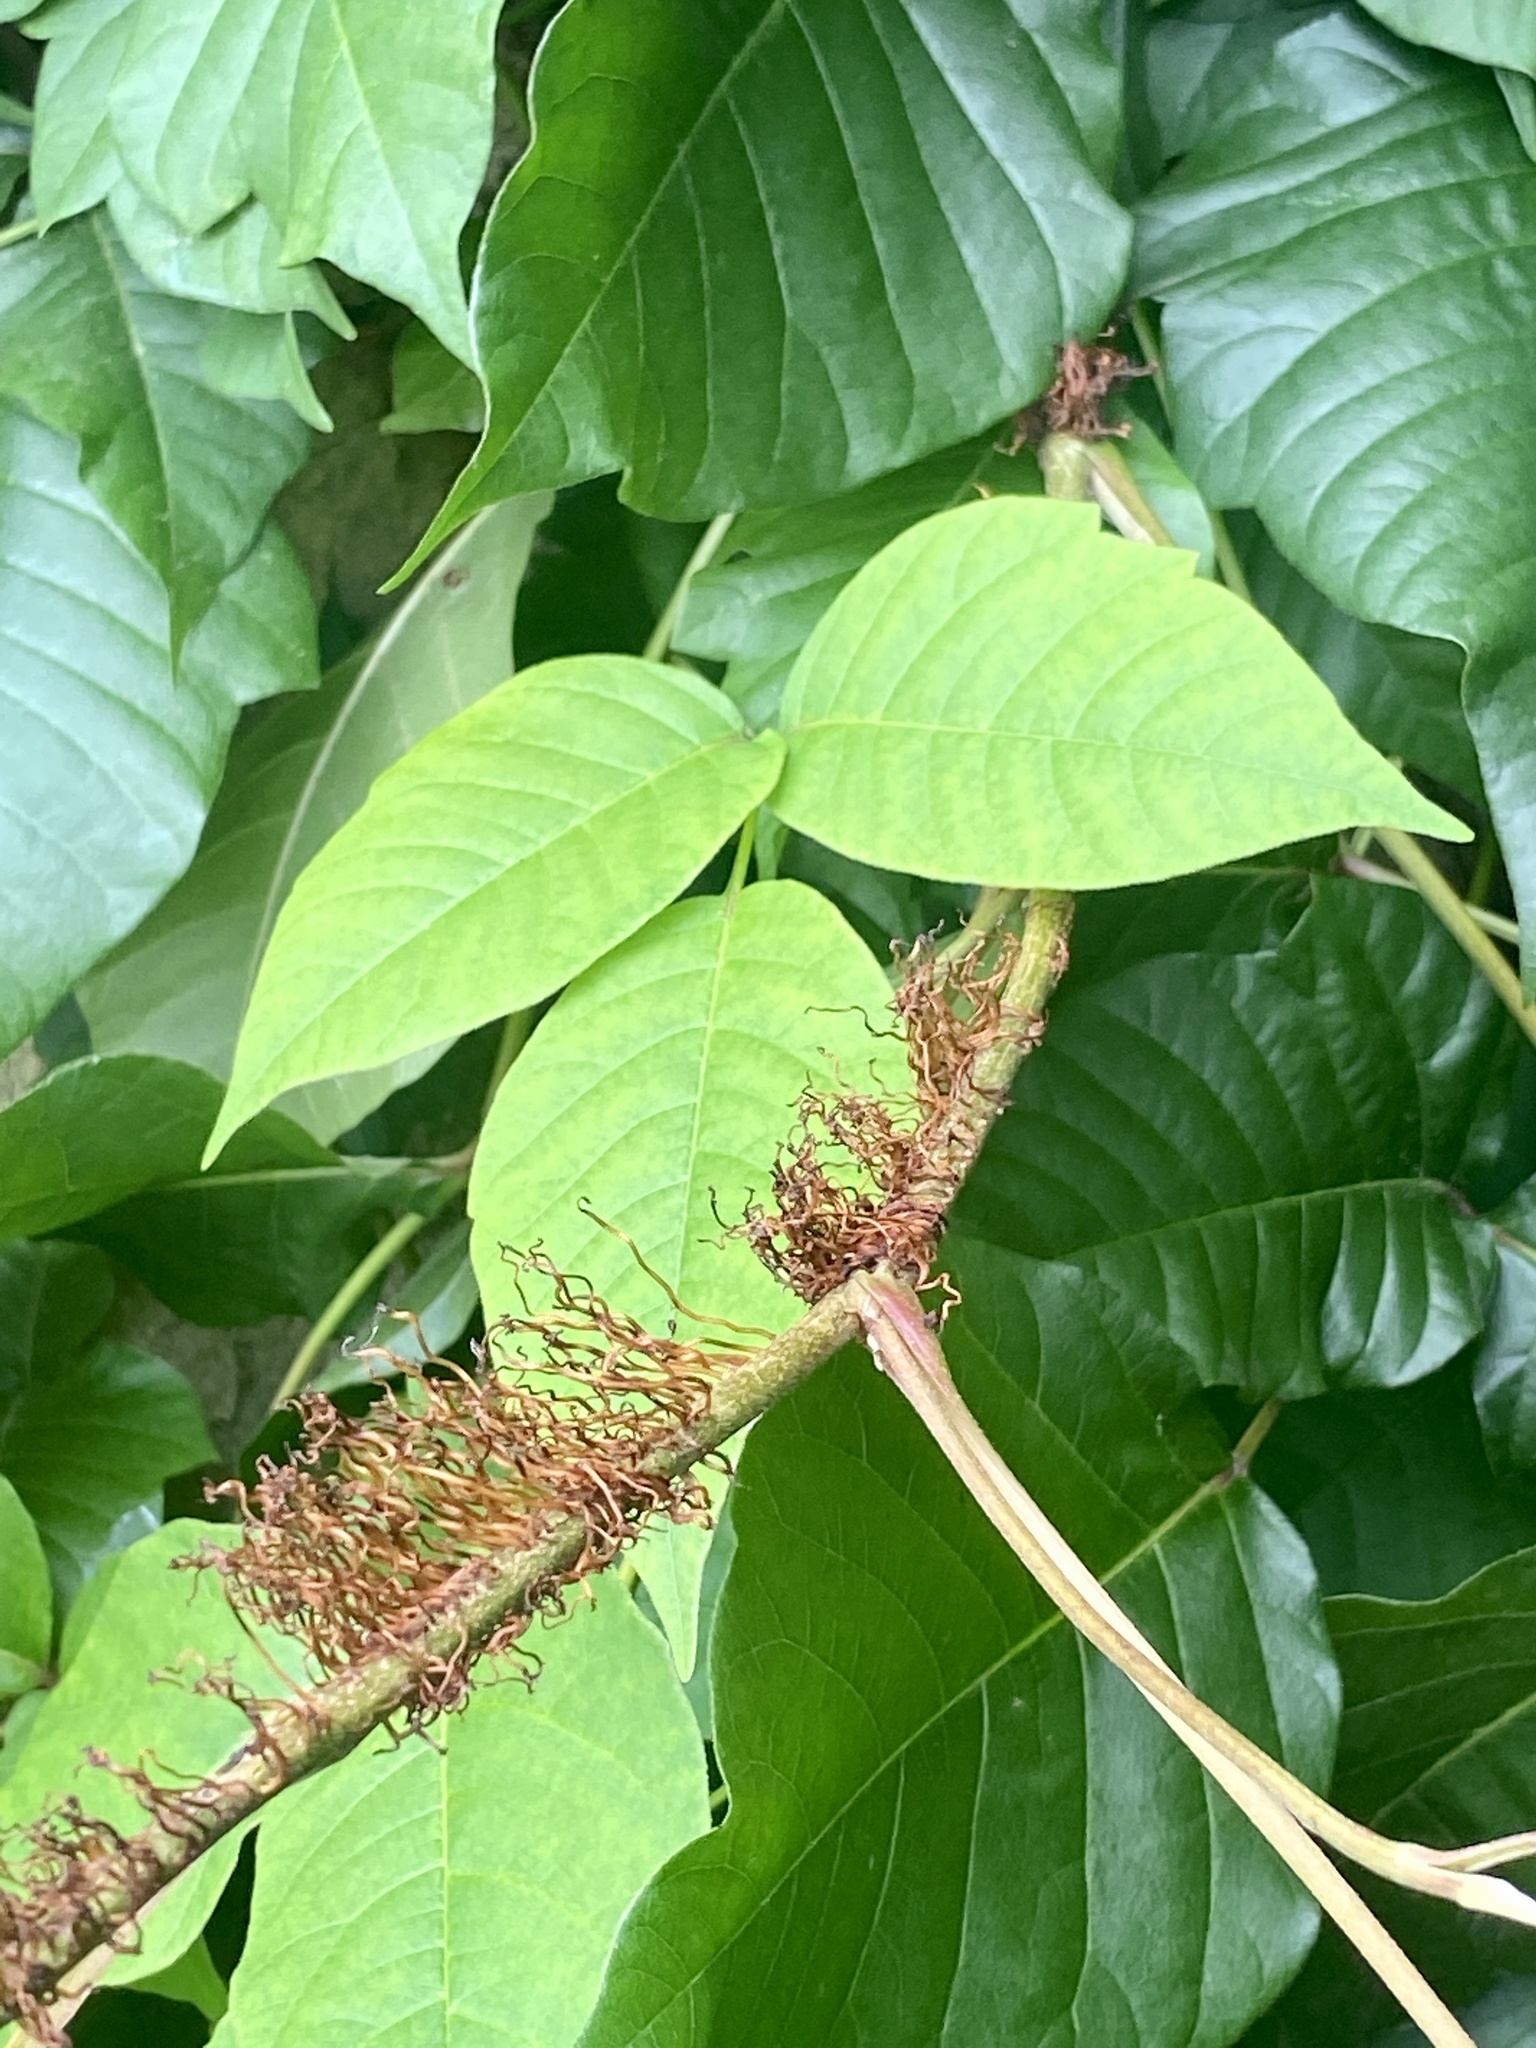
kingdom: Plantae
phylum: Tracheophyta
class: Magnoliopsida
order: Sapindales
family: Anacardiaceae
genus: Toxicodendron
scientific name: Toxicodendron radicans
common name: Poison ivy
